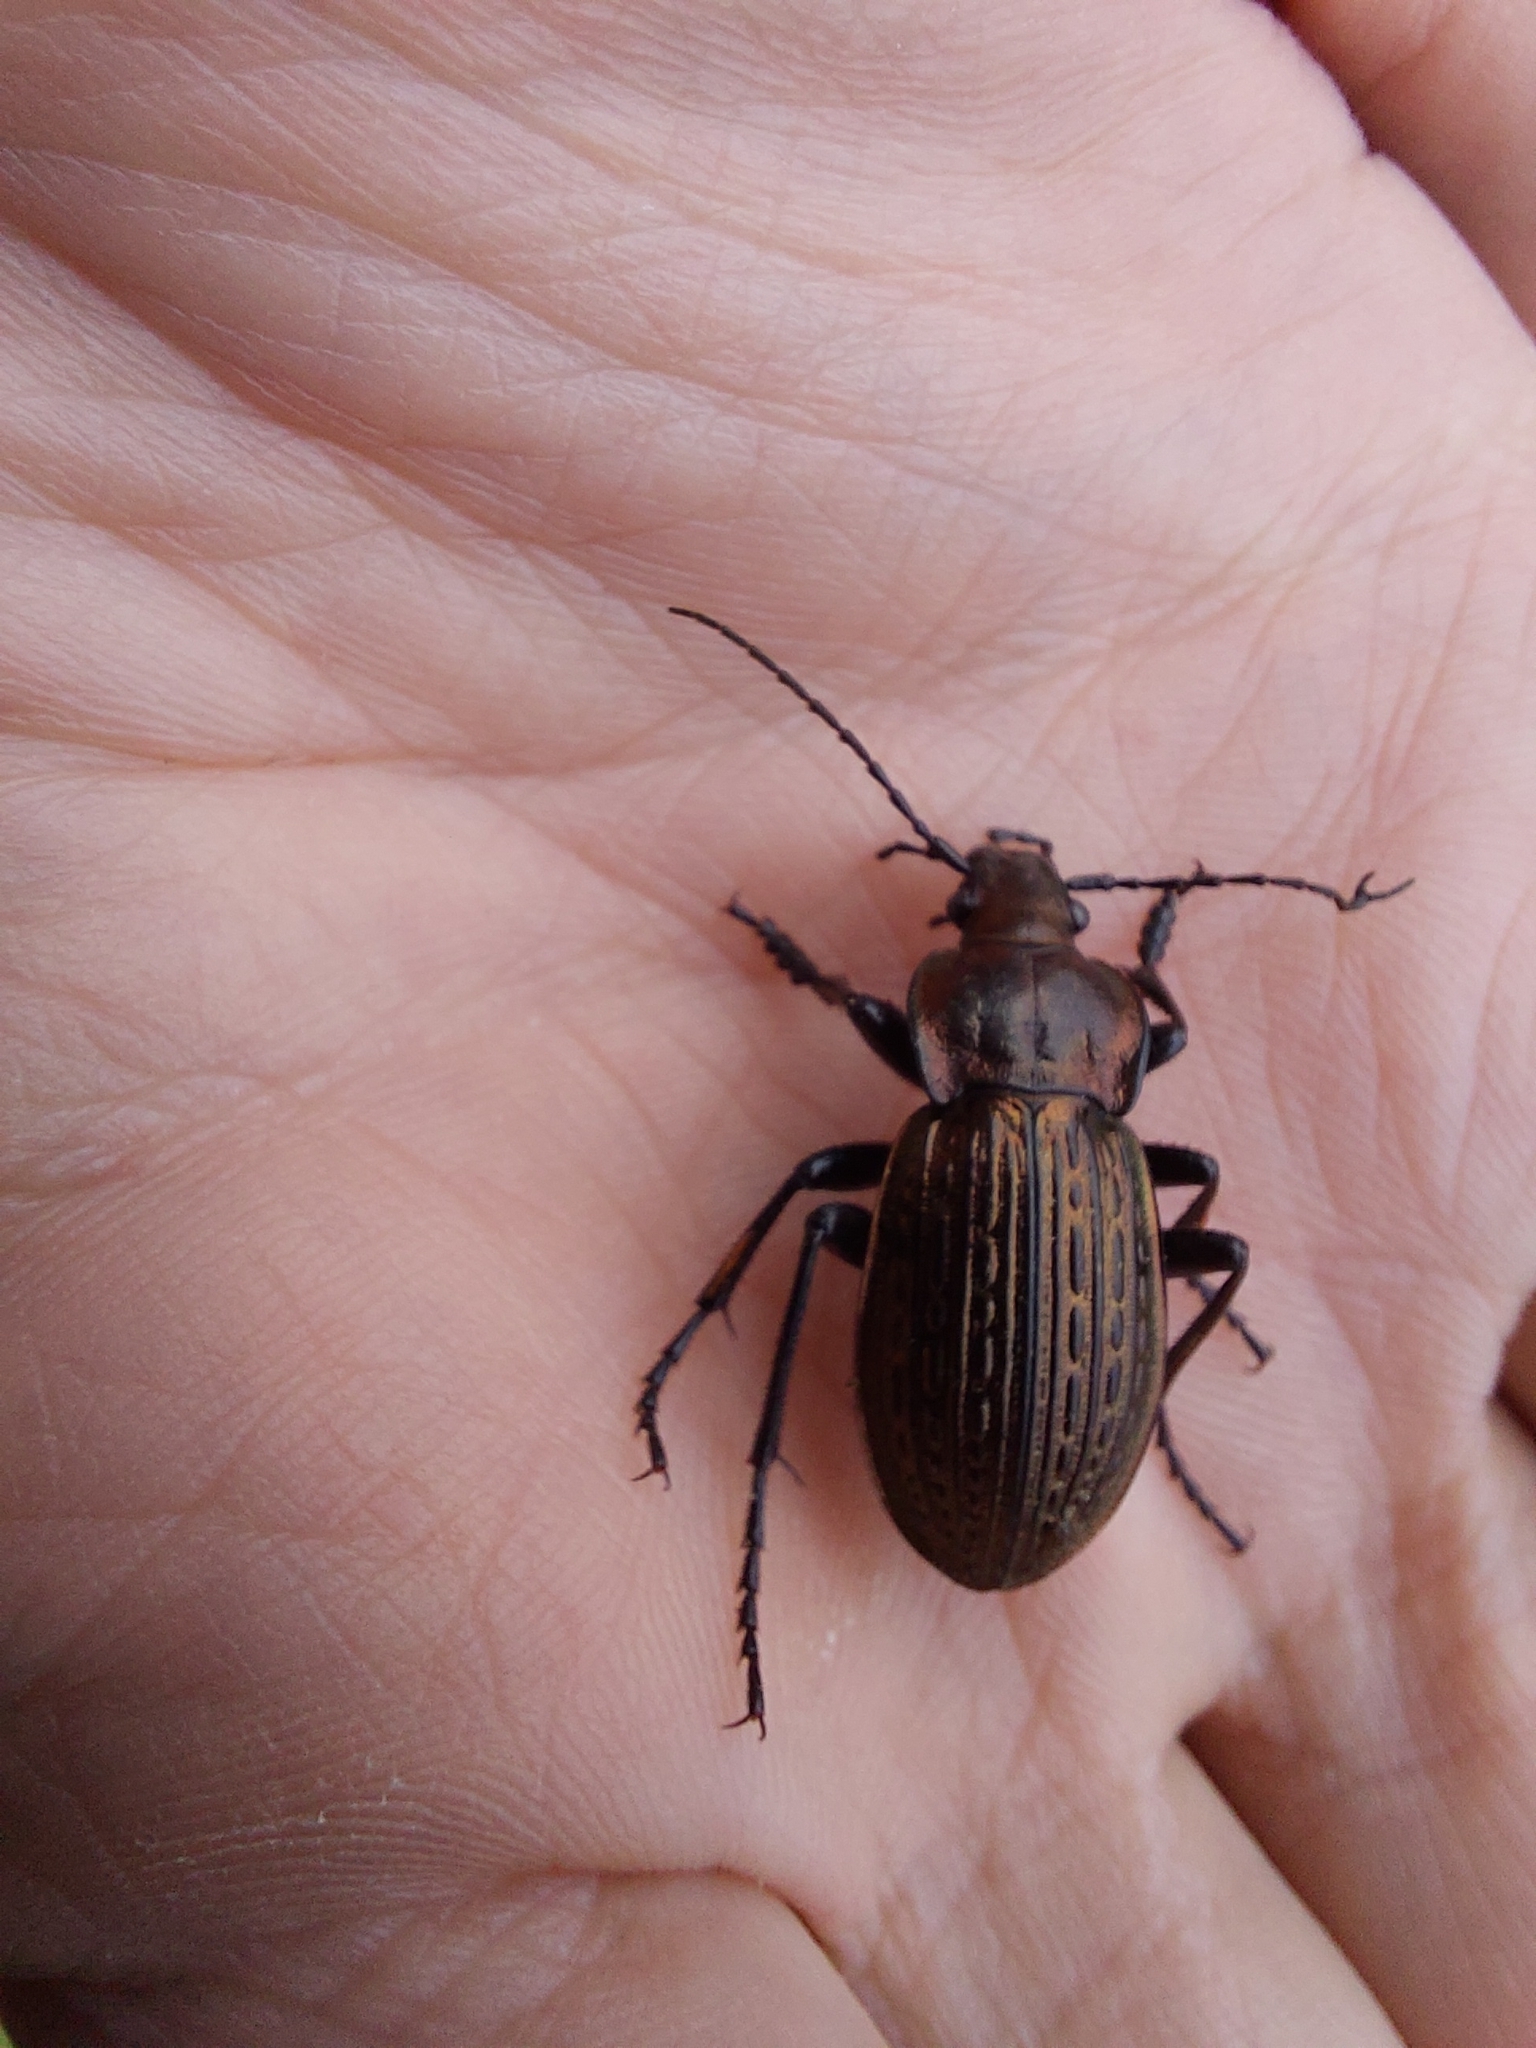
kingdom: Animalia
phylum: Arthropoda
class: Insecta
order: Coleoptera
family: Carabidae
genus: Carabus
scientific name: Carabus ulrichii
